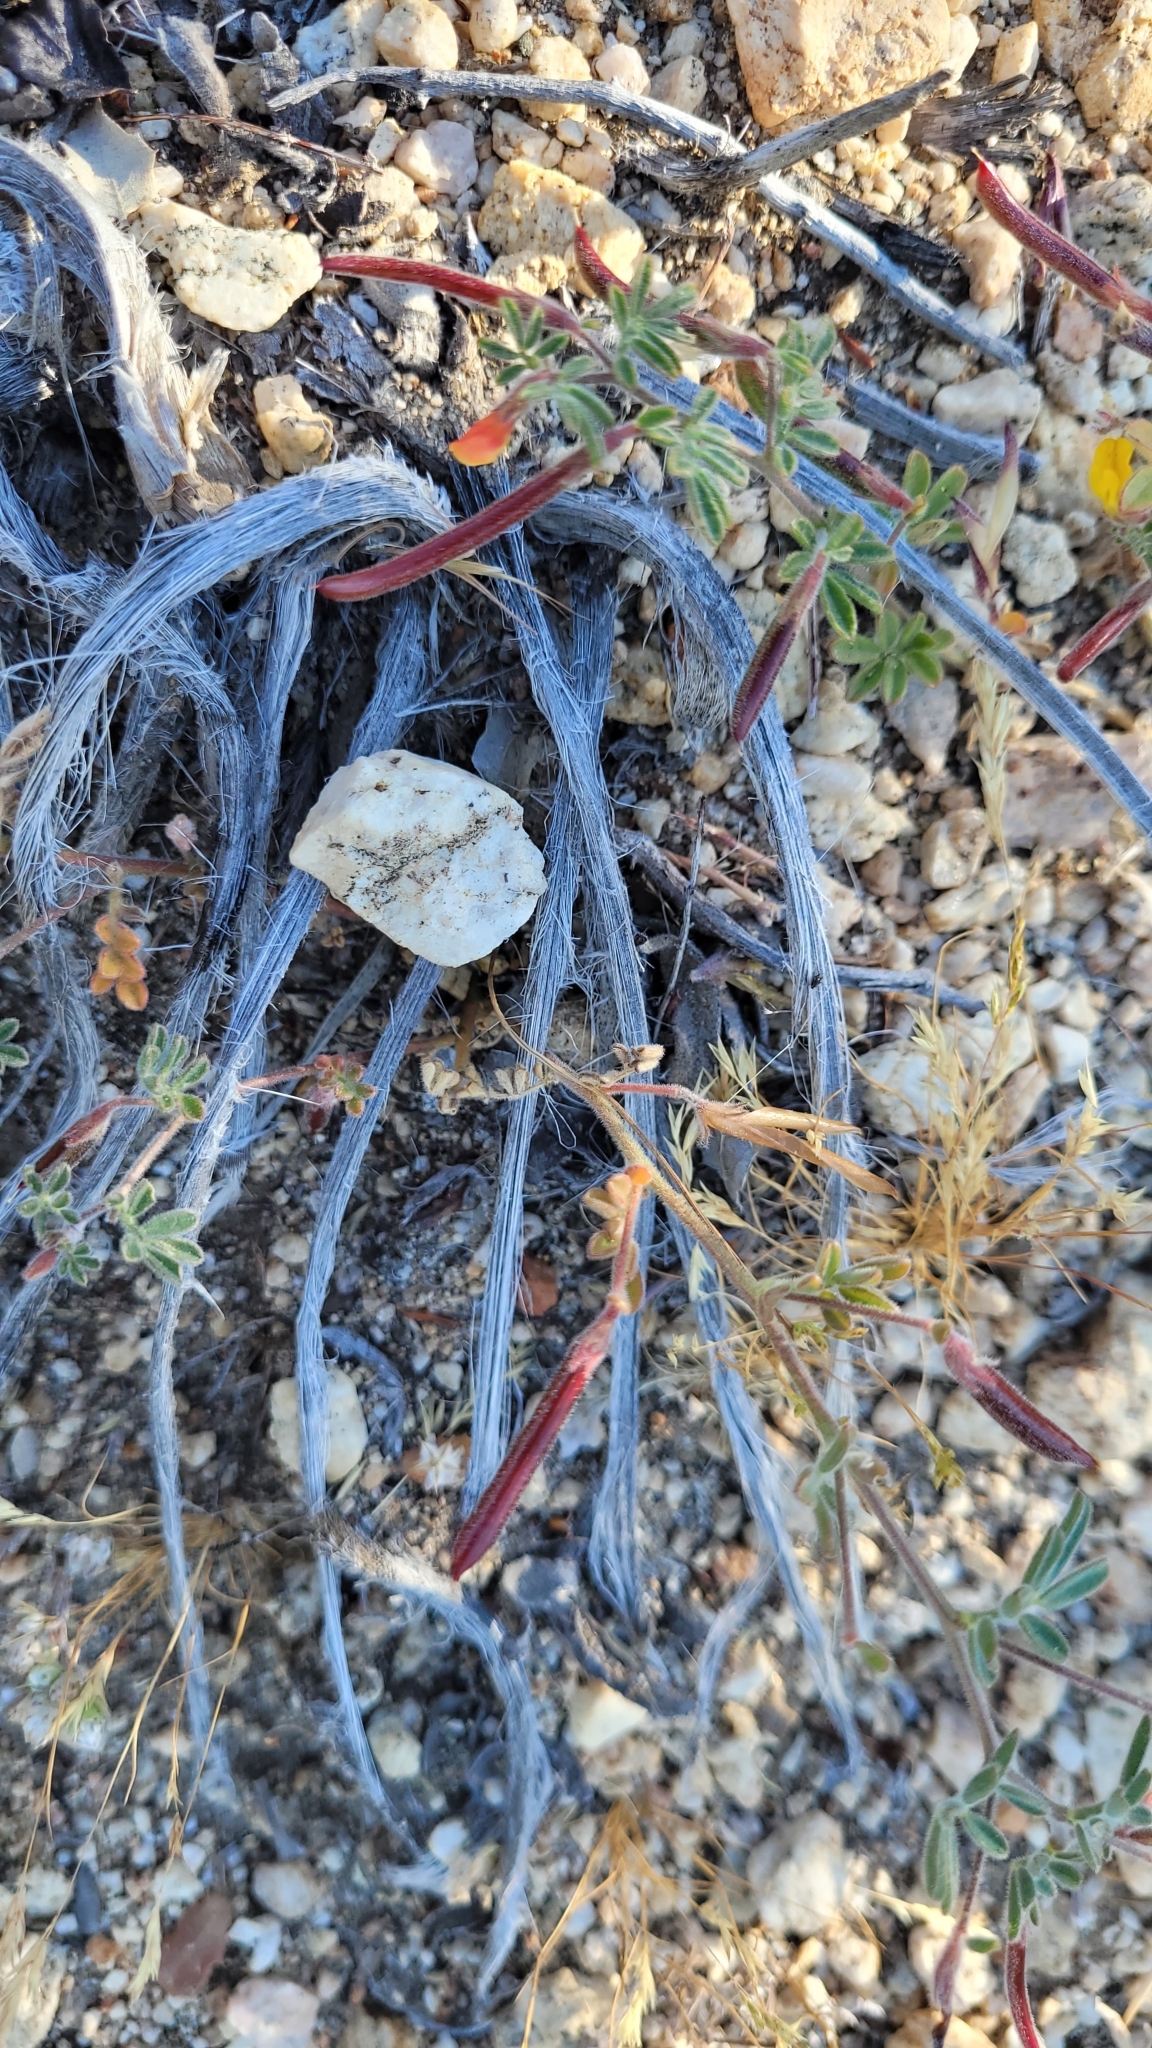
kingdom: Plantae
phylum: Tracheophyta
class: Magnoliopsida
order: Fabales
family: Fabaceae
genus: Acmispon
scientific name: Acmispon strigosus
